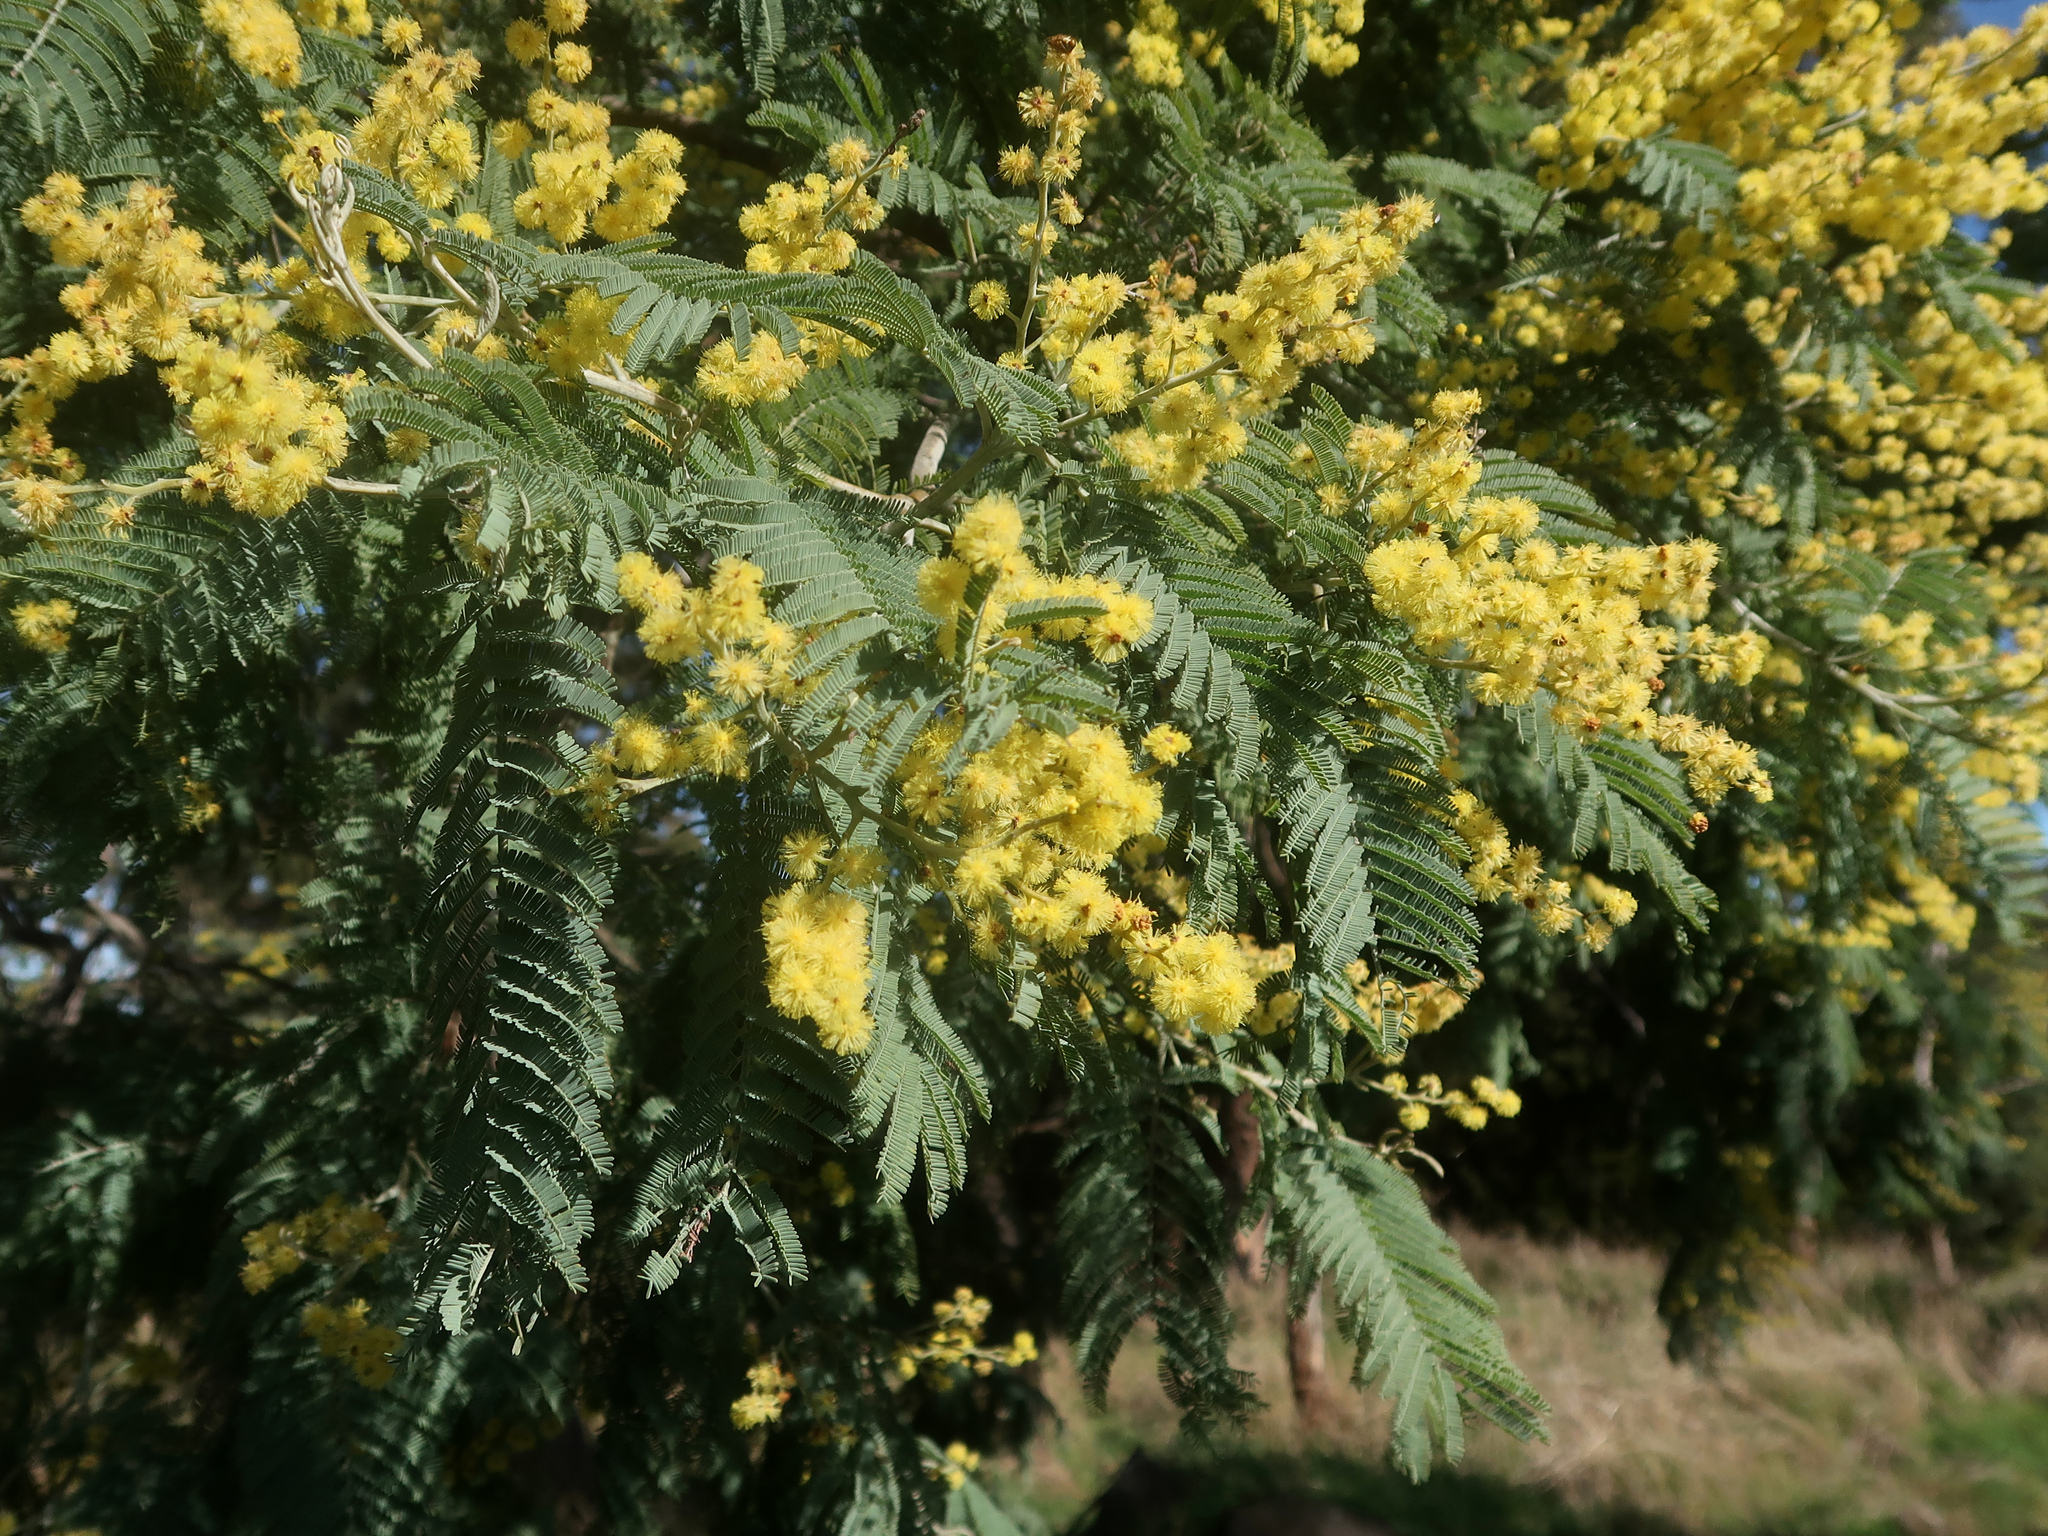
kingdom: Plantae
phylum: Tracheophyta
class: Magnoliopsida
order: Fabales
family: Fabaceae
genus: Acacia
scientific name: Acacia dealbata
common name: Silver wattle
